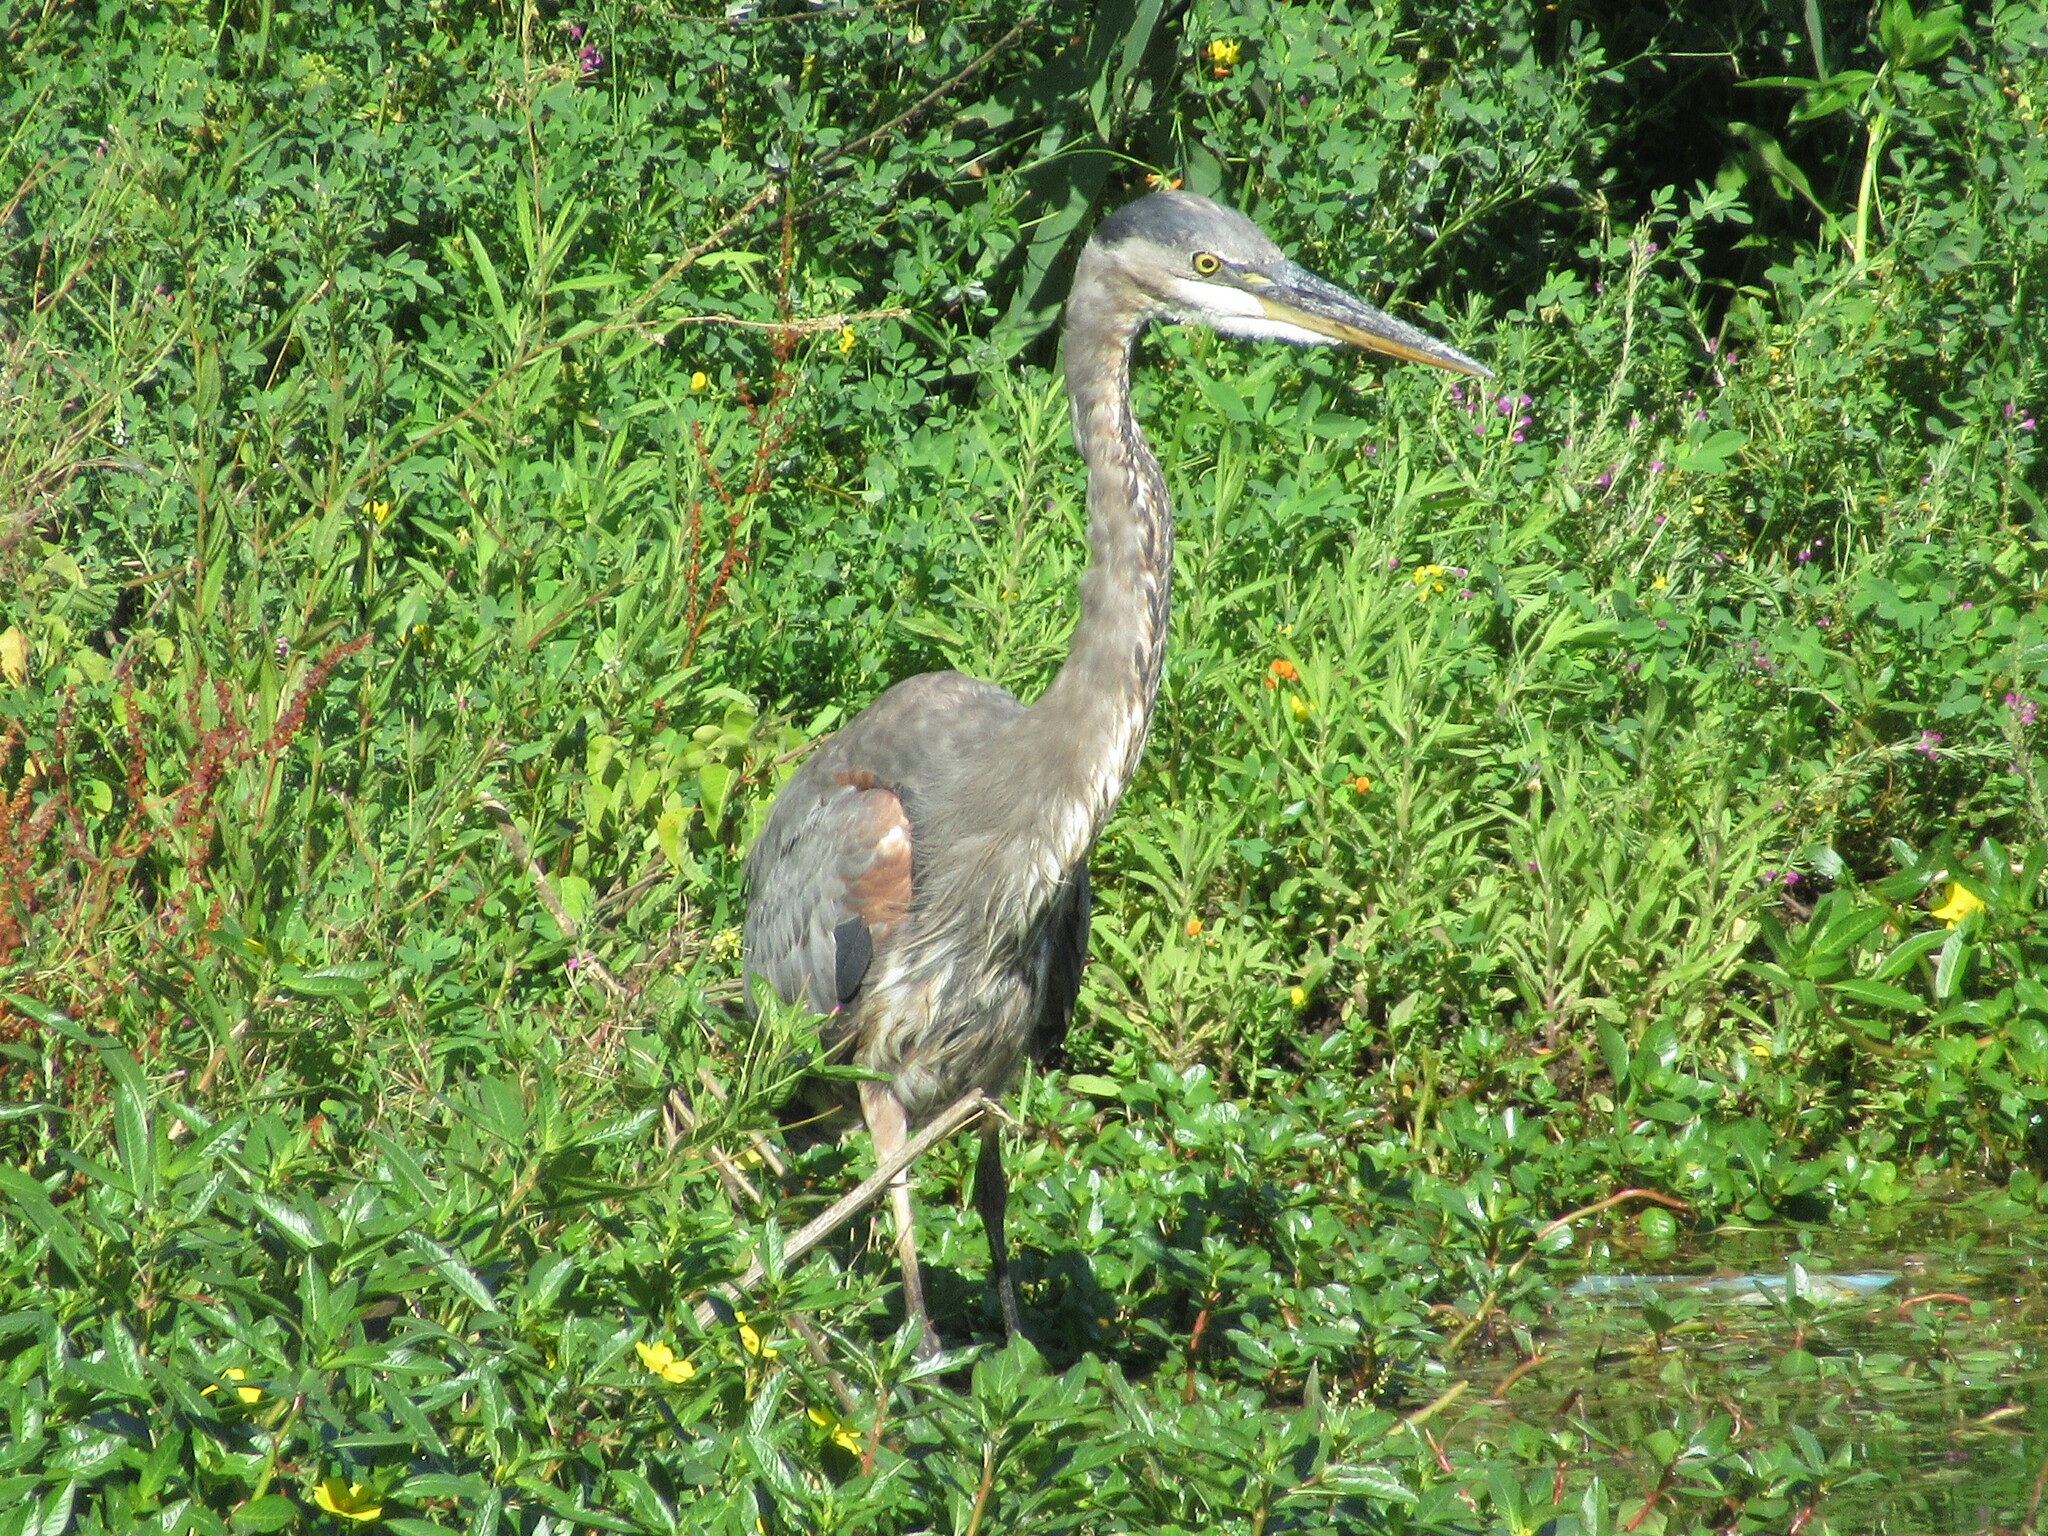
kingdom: Animalia
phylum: Chordata
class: Aves
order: Pelecaniformes
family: Ardeidae
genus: Ardea
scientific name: Ardea herodias
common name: Great blue heron
